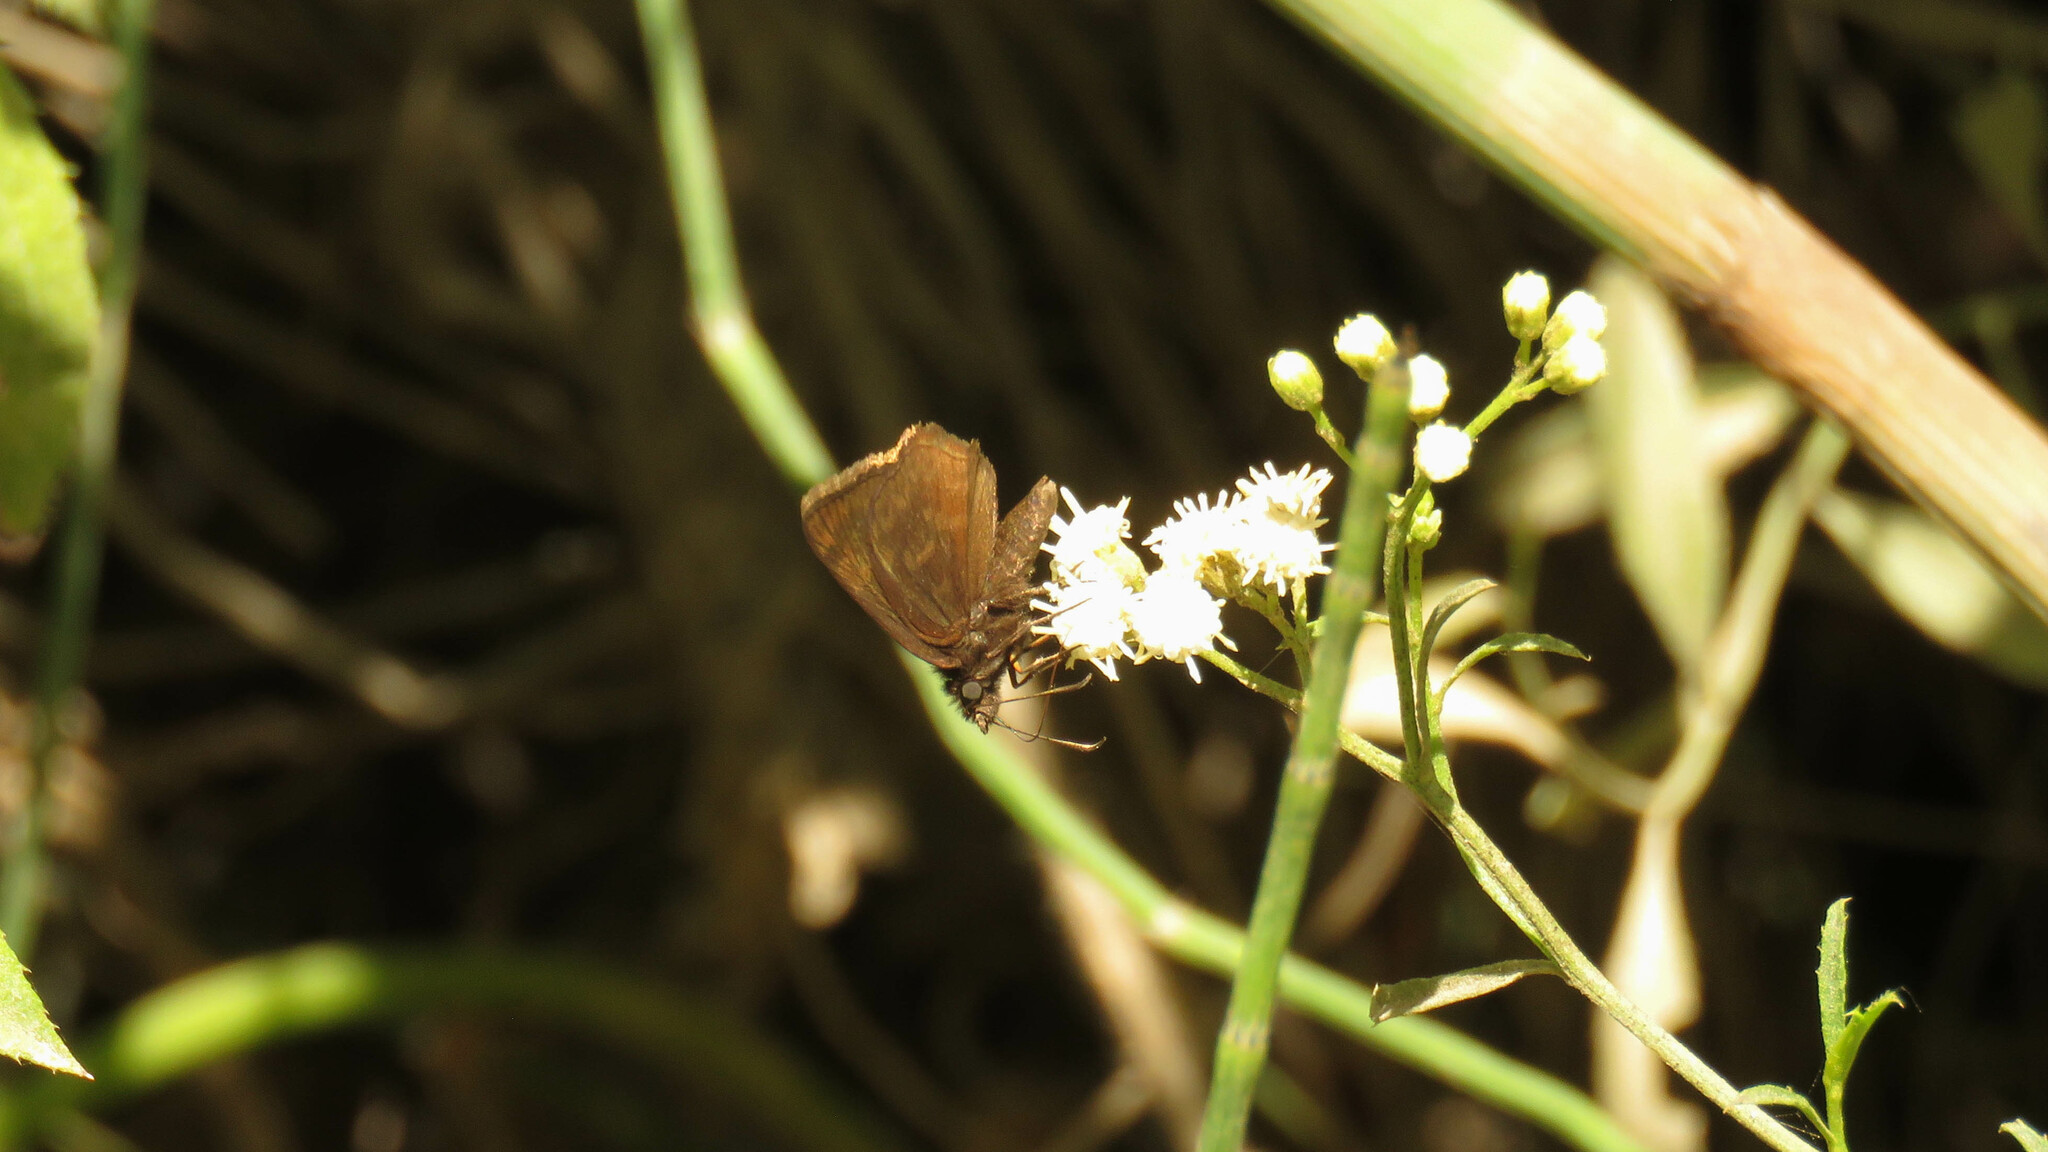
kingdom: Animalia
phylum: Arthropoda
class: Insecta
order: Lepidoptera
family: Hesperiidae
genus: Viola
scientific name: Viola minor
